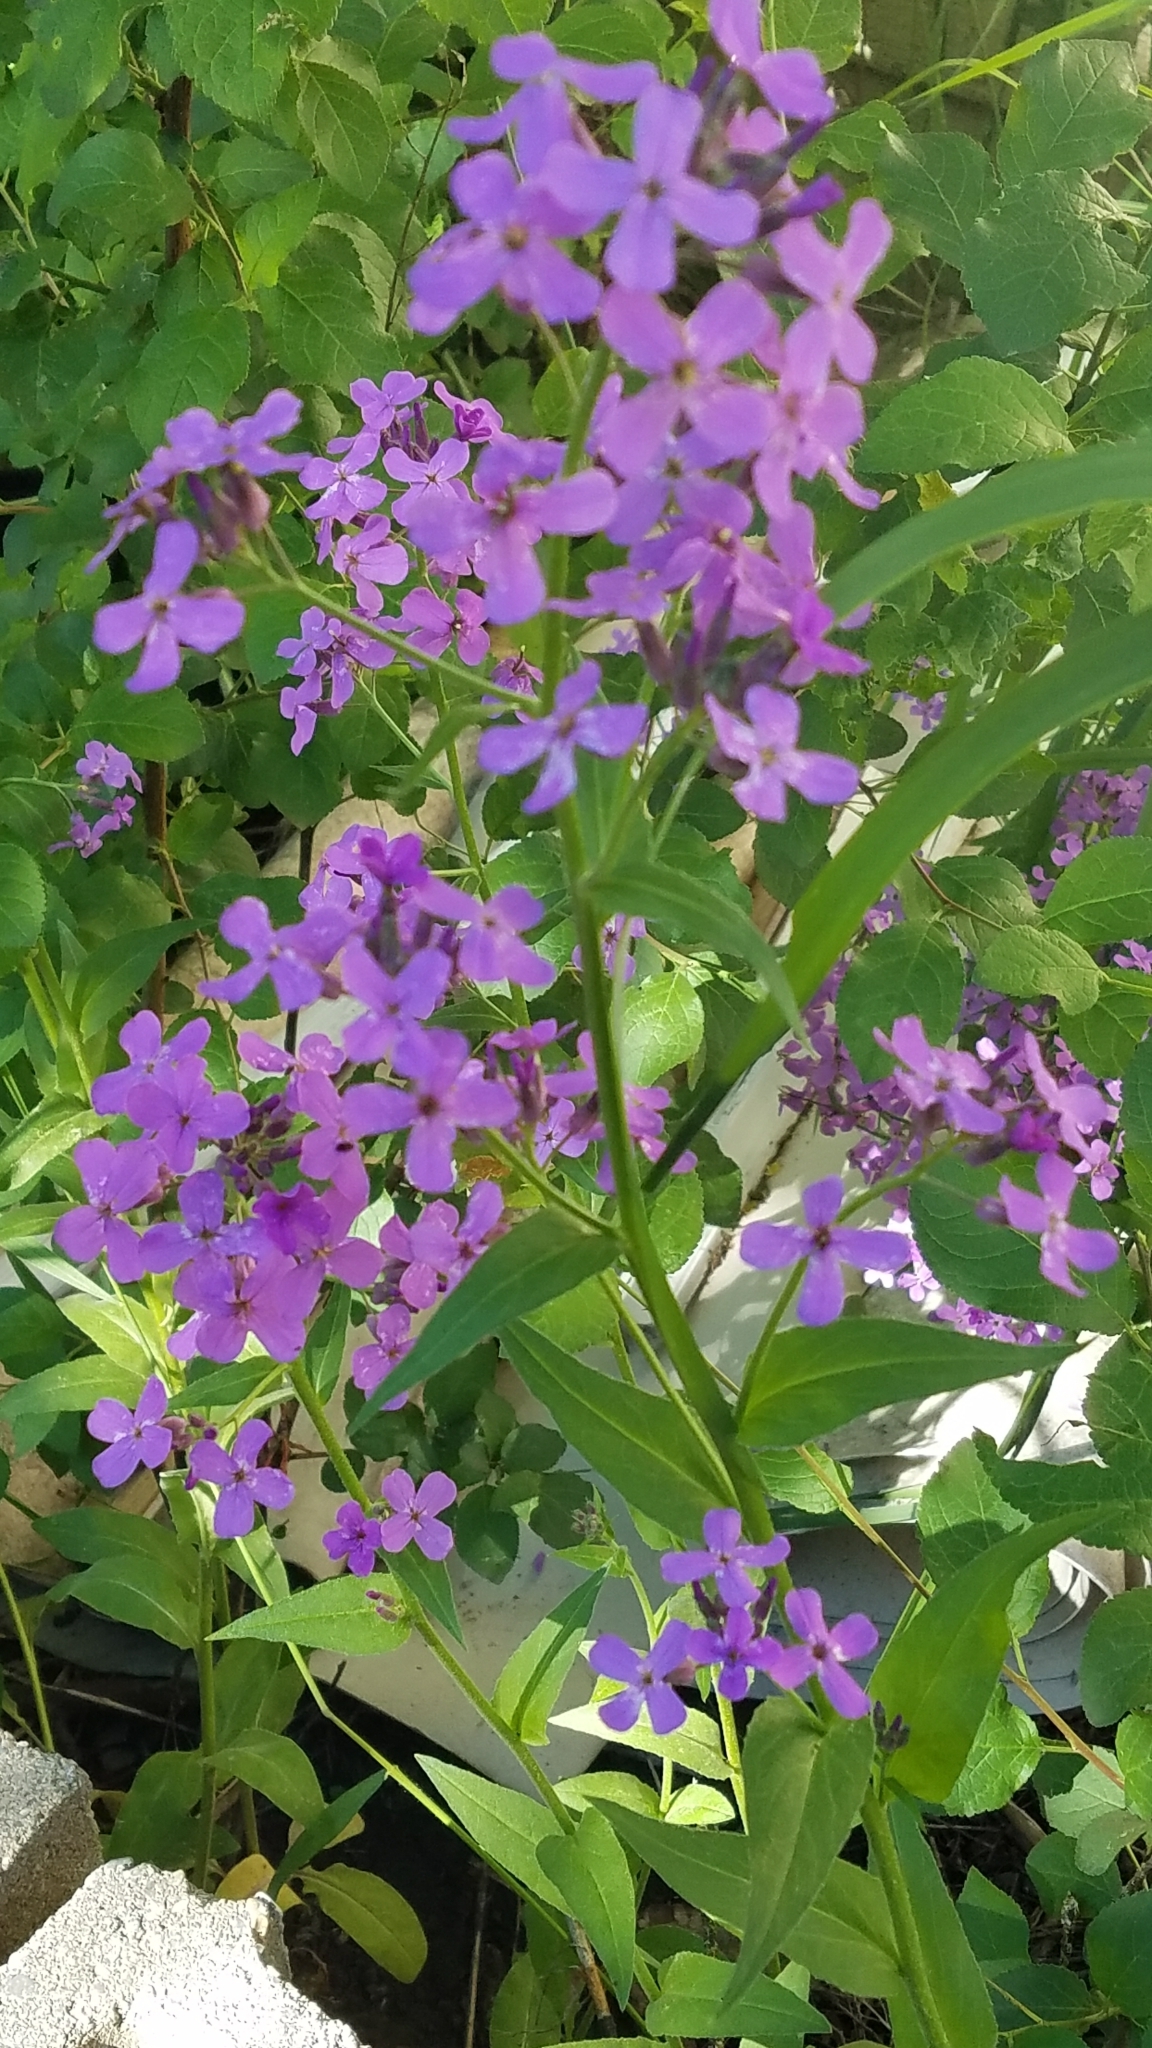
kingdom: Plantae
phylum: Tracheophyta
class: Magnoliopsida
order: Brassicales
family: Brassicaceae
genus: Hesperis
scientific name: Hesperis matronalis
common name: Dame's-violet
